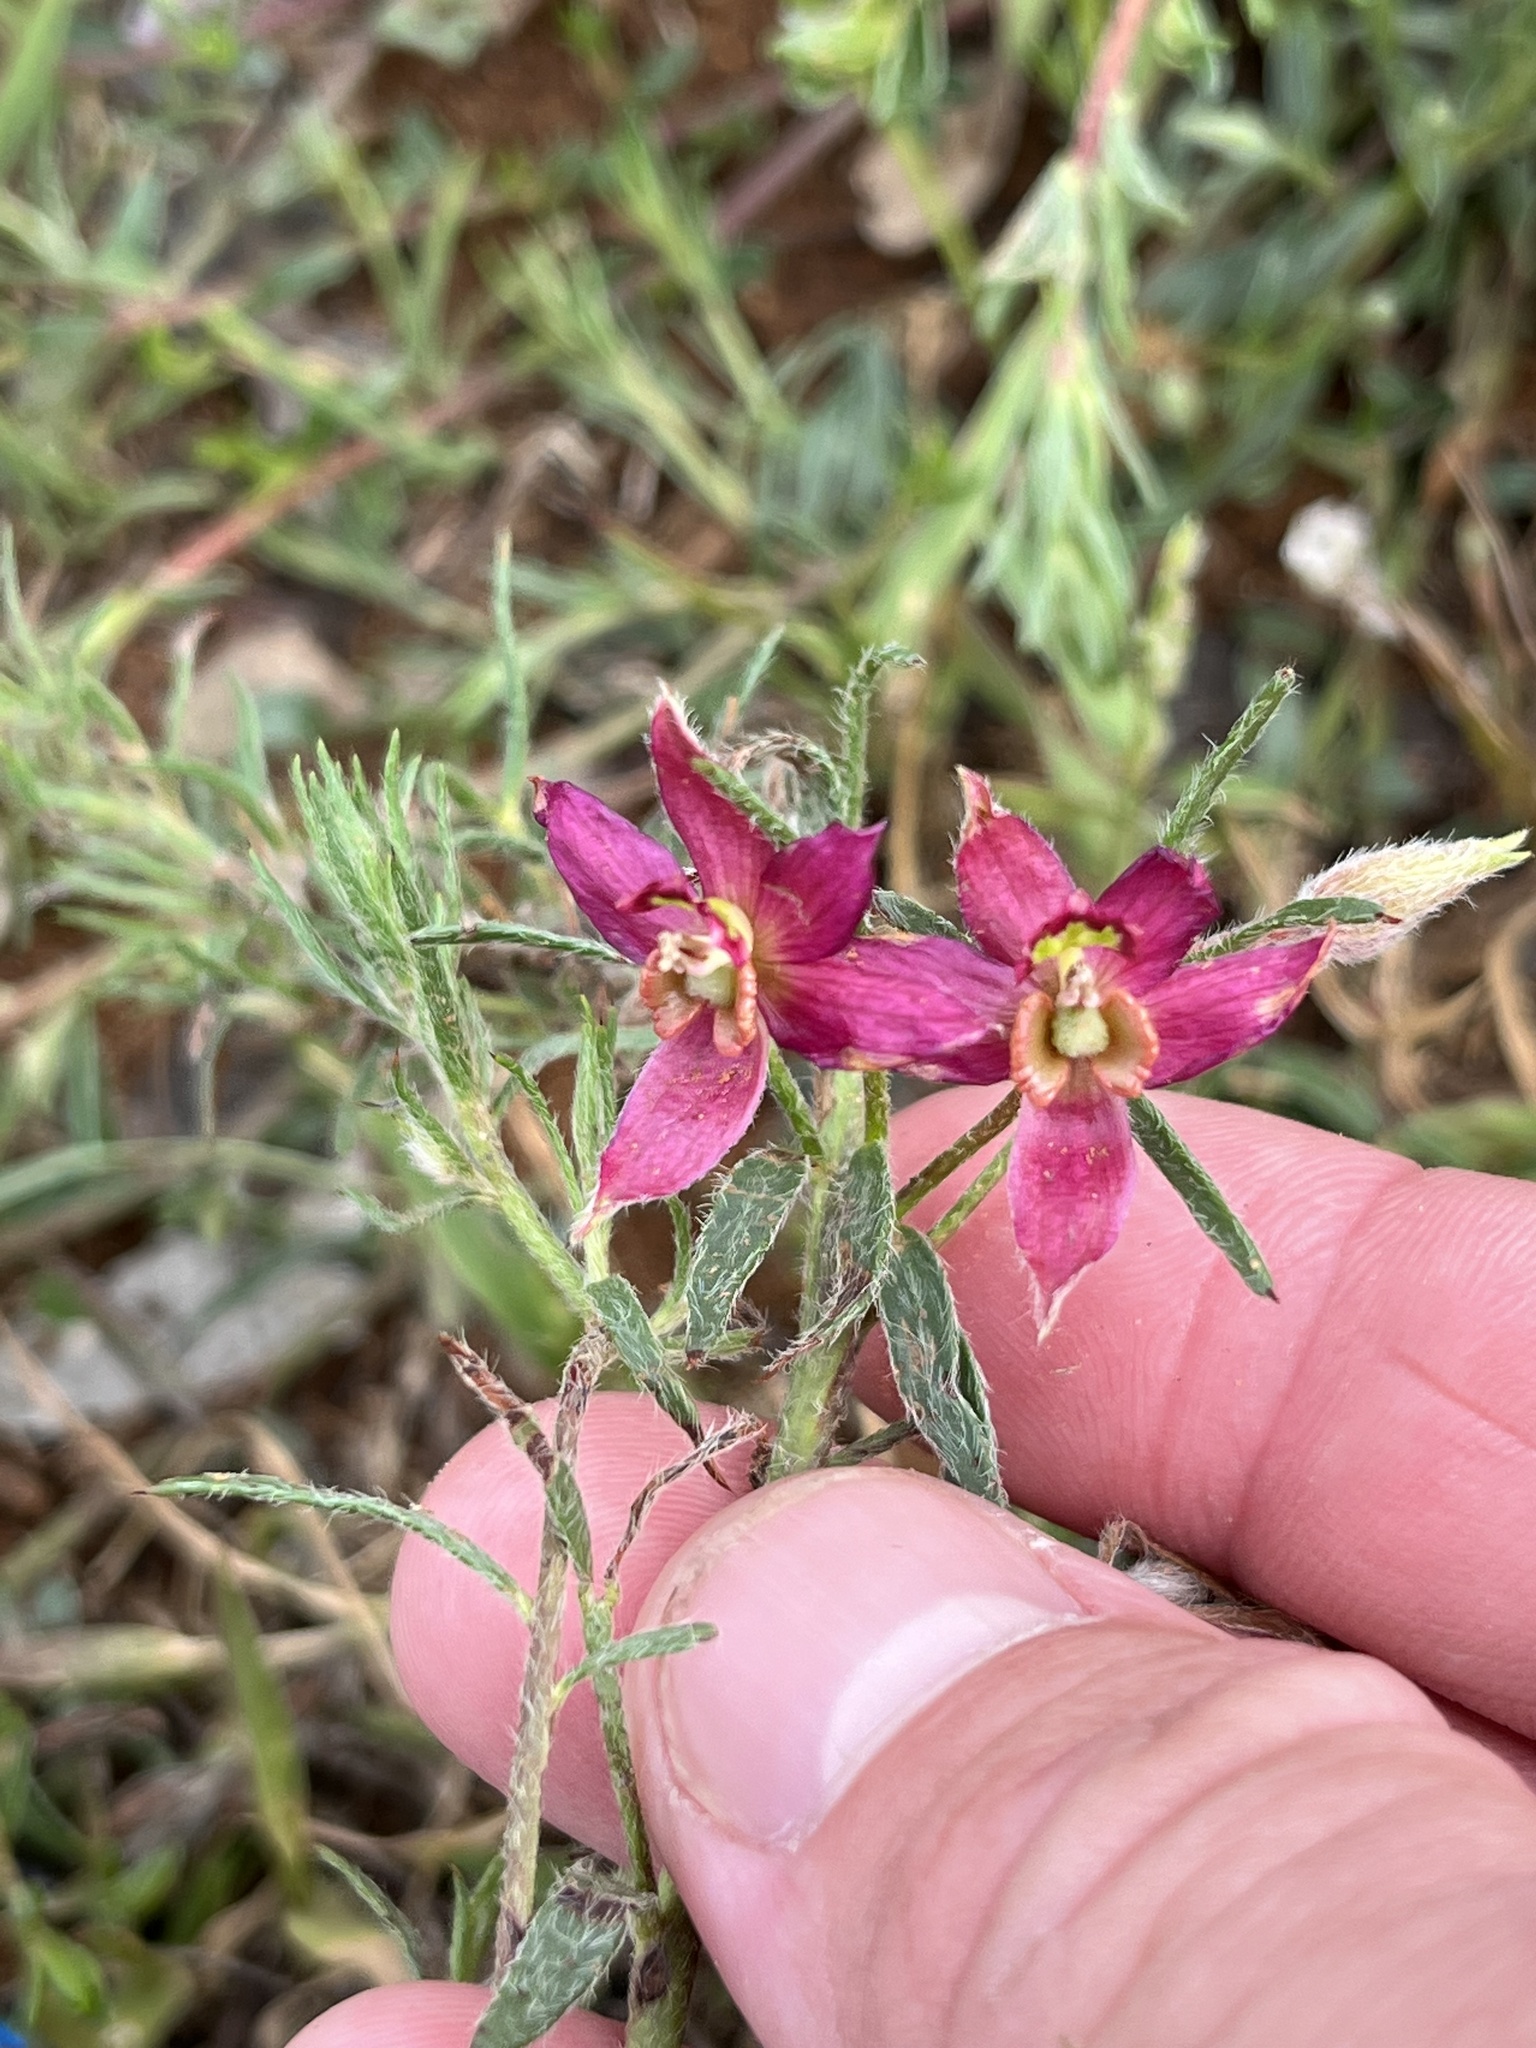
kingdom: Plantae
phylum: Tracheophyta
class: Magnoliopsida
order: Zygophyllales
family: Krameriaceae
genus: Krameria
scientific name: Krameria lanceolata
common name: Ratany
